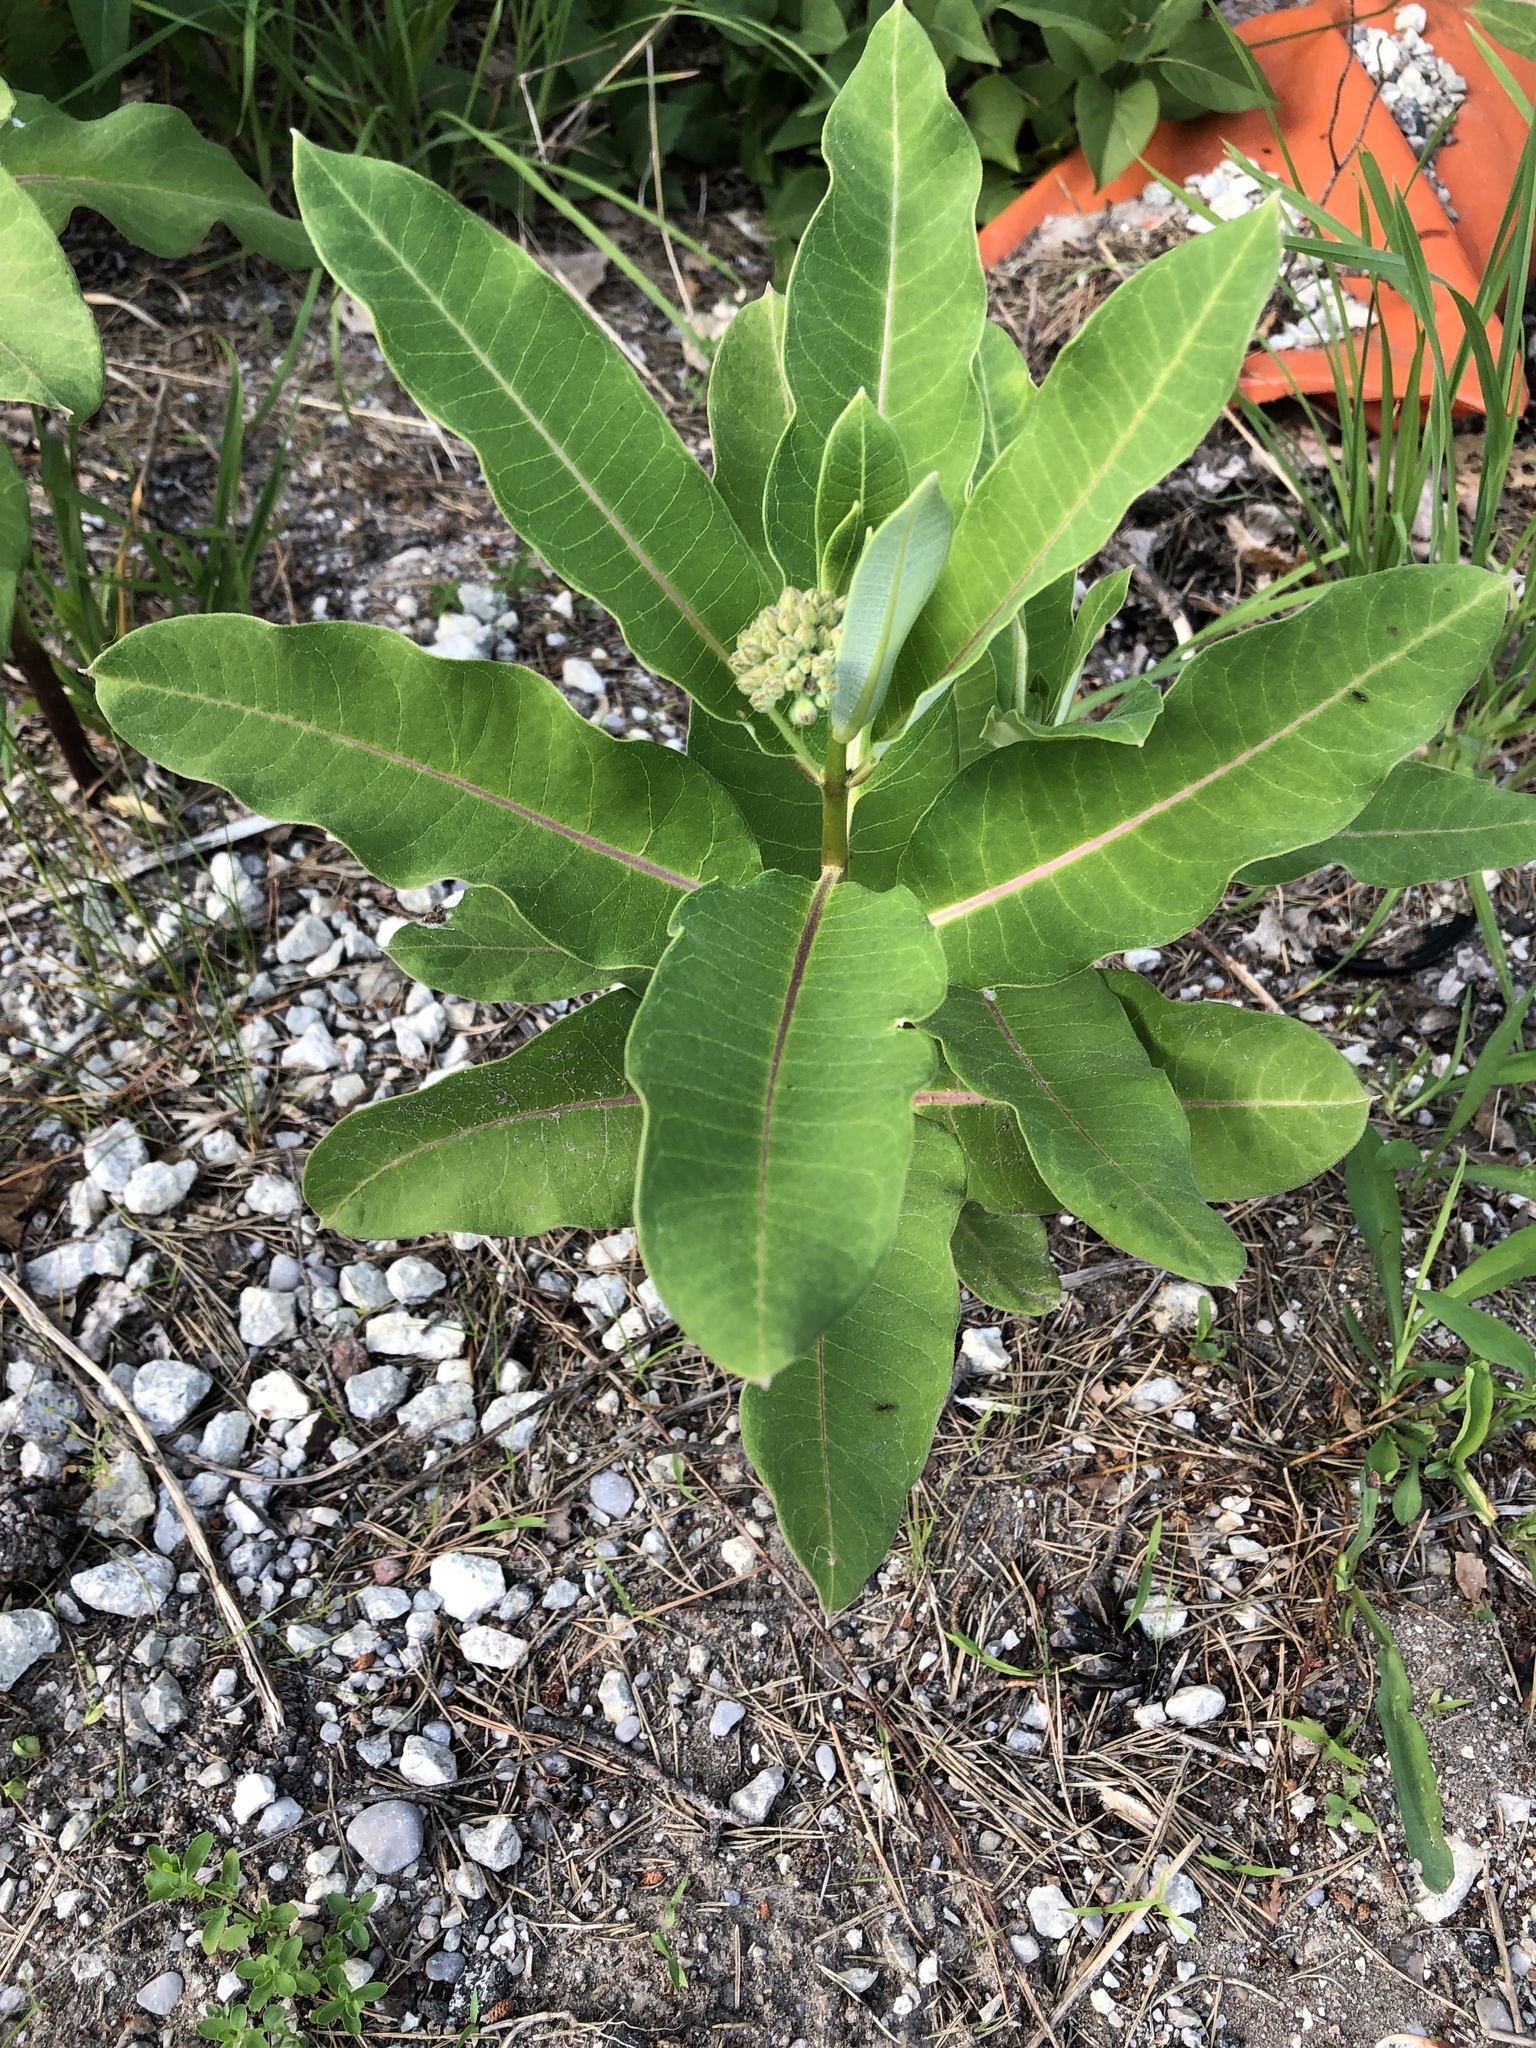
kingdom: Plantae
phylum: Tracheophyta
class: Magnoliopsida
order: Gentianales
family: Apocynaceae
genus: Asclepias
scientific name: Asclepias syriaca
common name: Common milkweed
